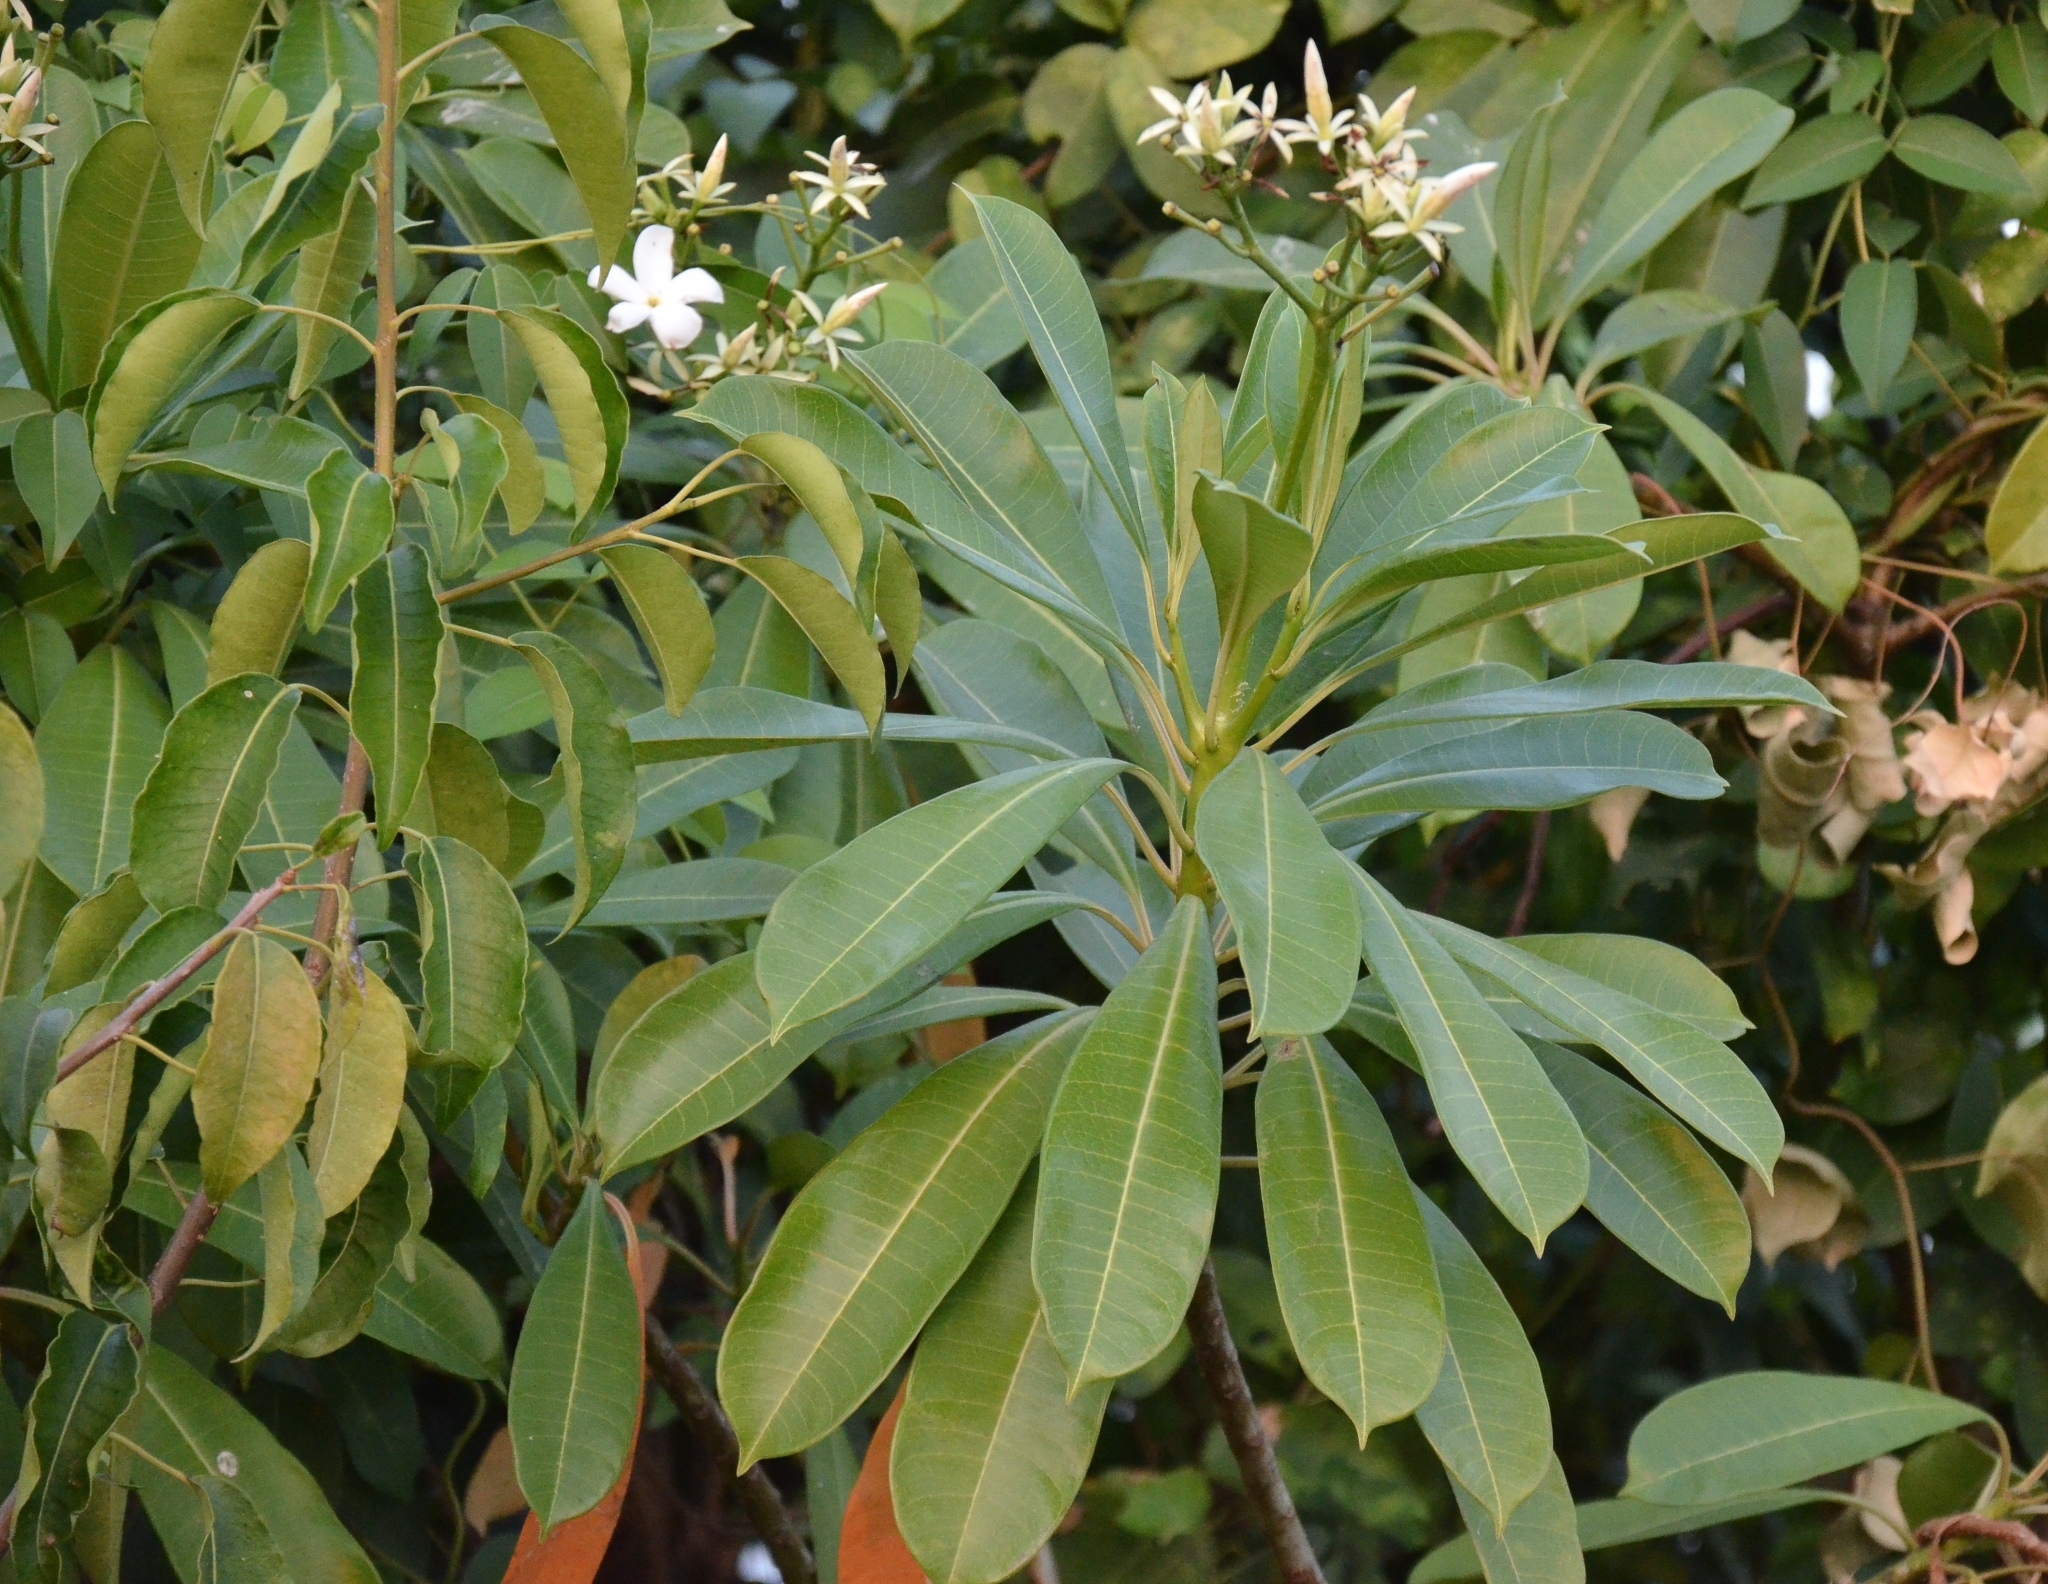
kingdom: Plantae
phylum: Tracheophyta
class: Magnoliopsida
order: Gentianales
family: Apocynaceae
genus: Cerbera
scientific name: Cerbera odollam
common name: Pong-pong
